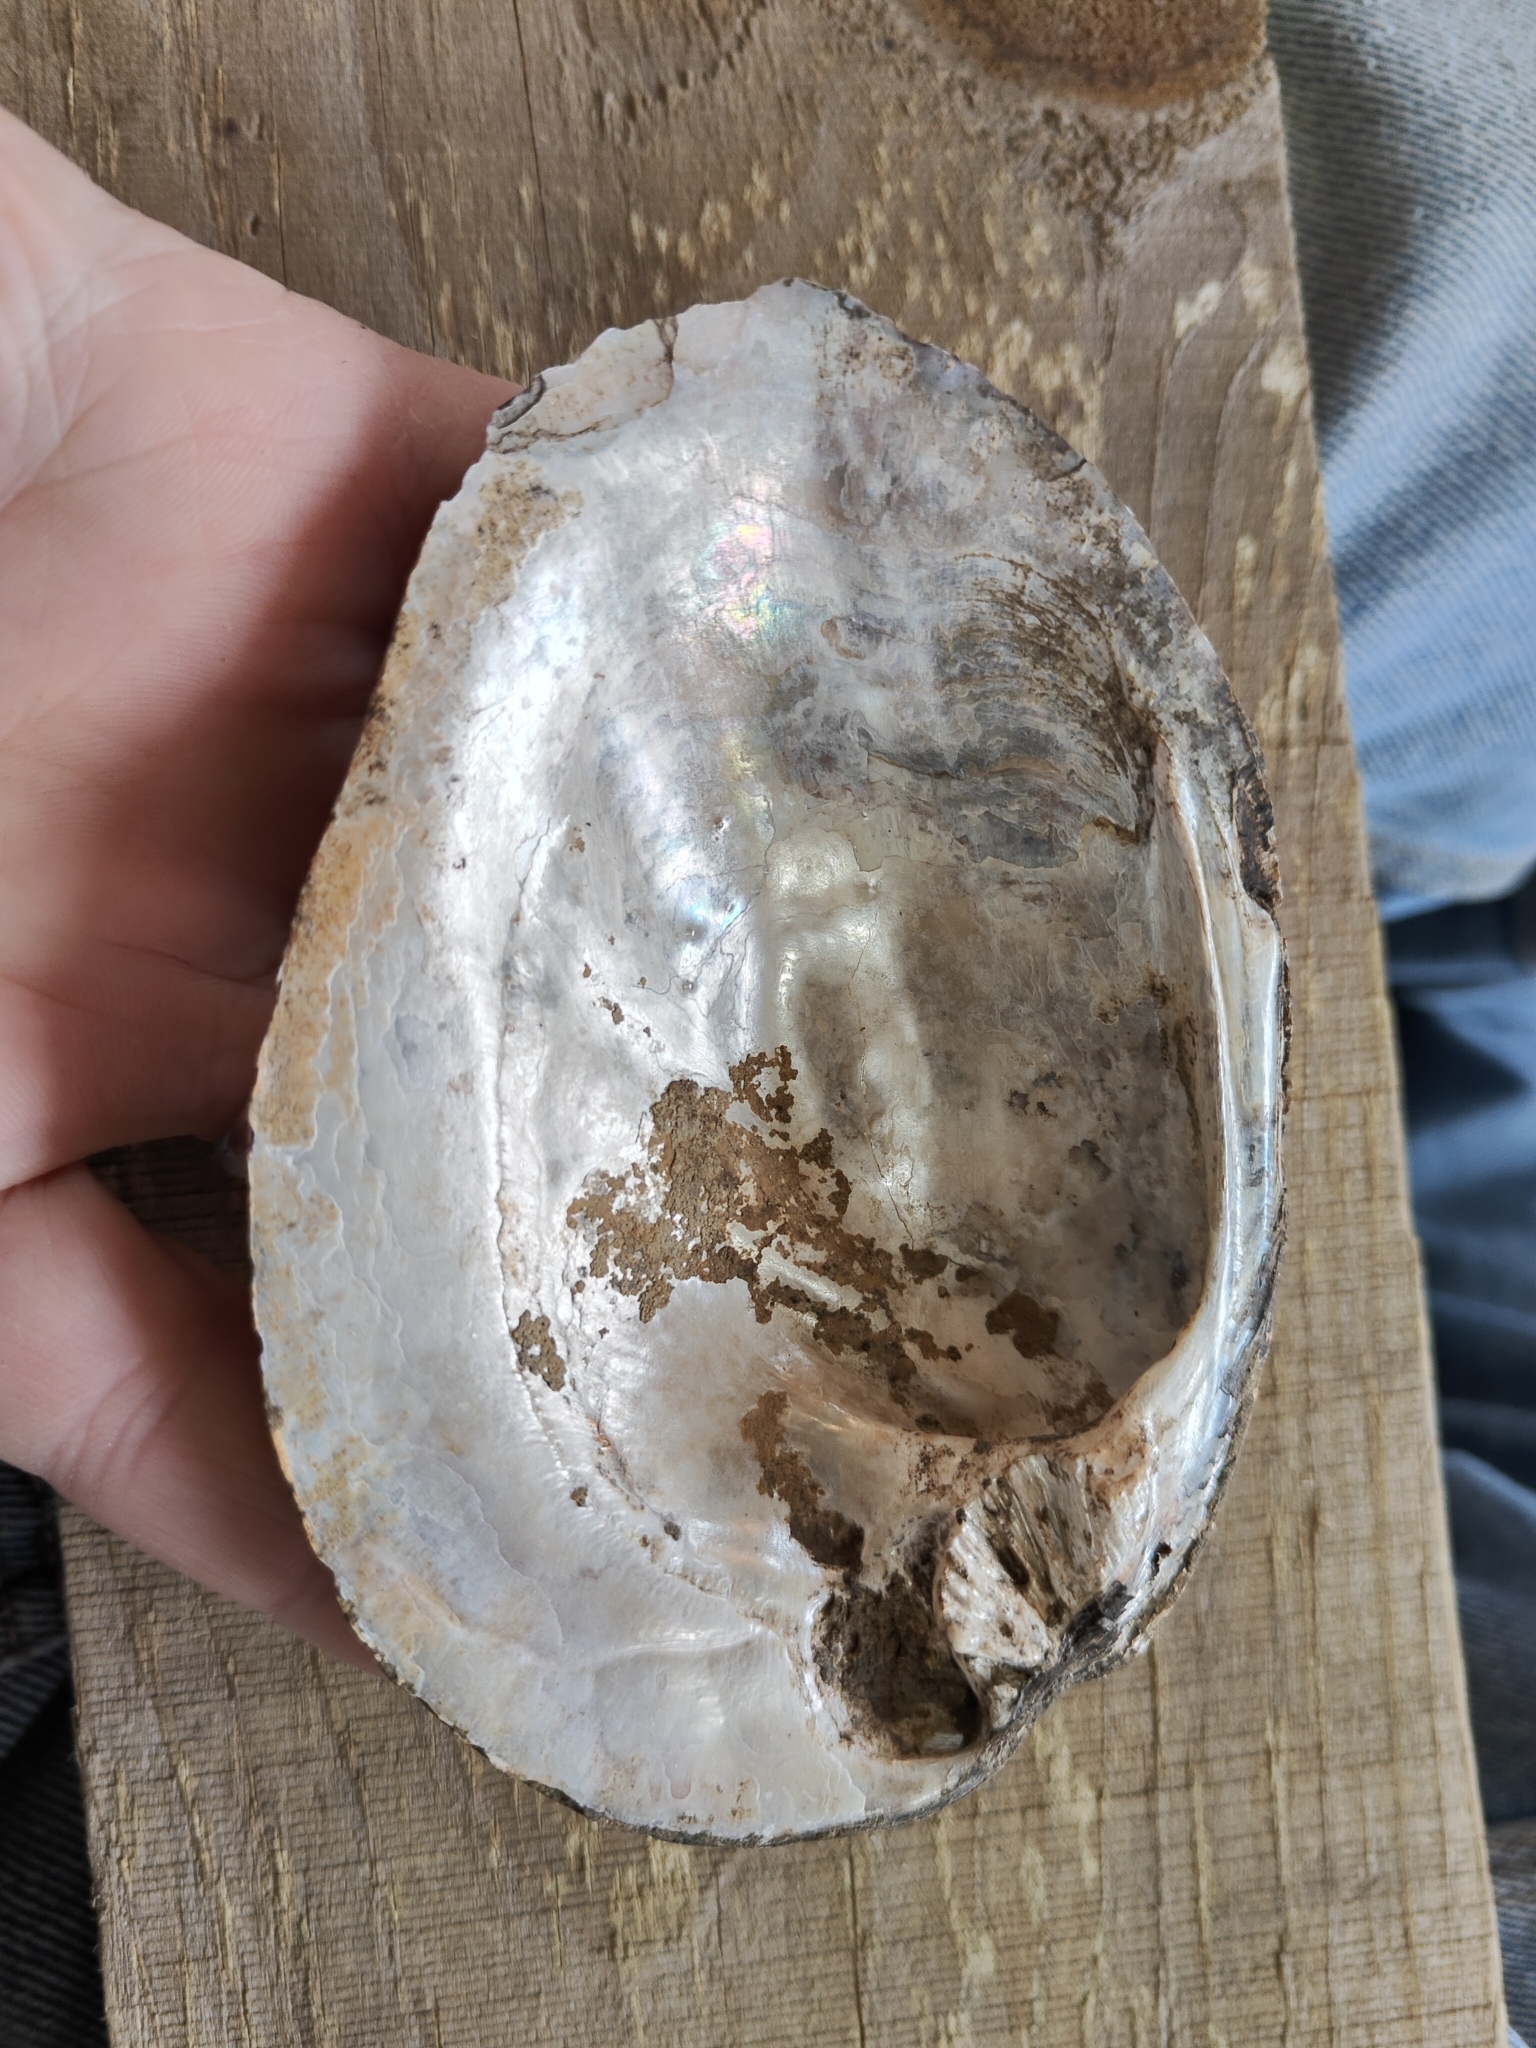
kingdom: Animalia
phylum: Mollusca
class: Bivalvia
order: Unionida
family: Unionidae
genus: Amblema
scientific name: Amblema plicata
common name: Threeridge
